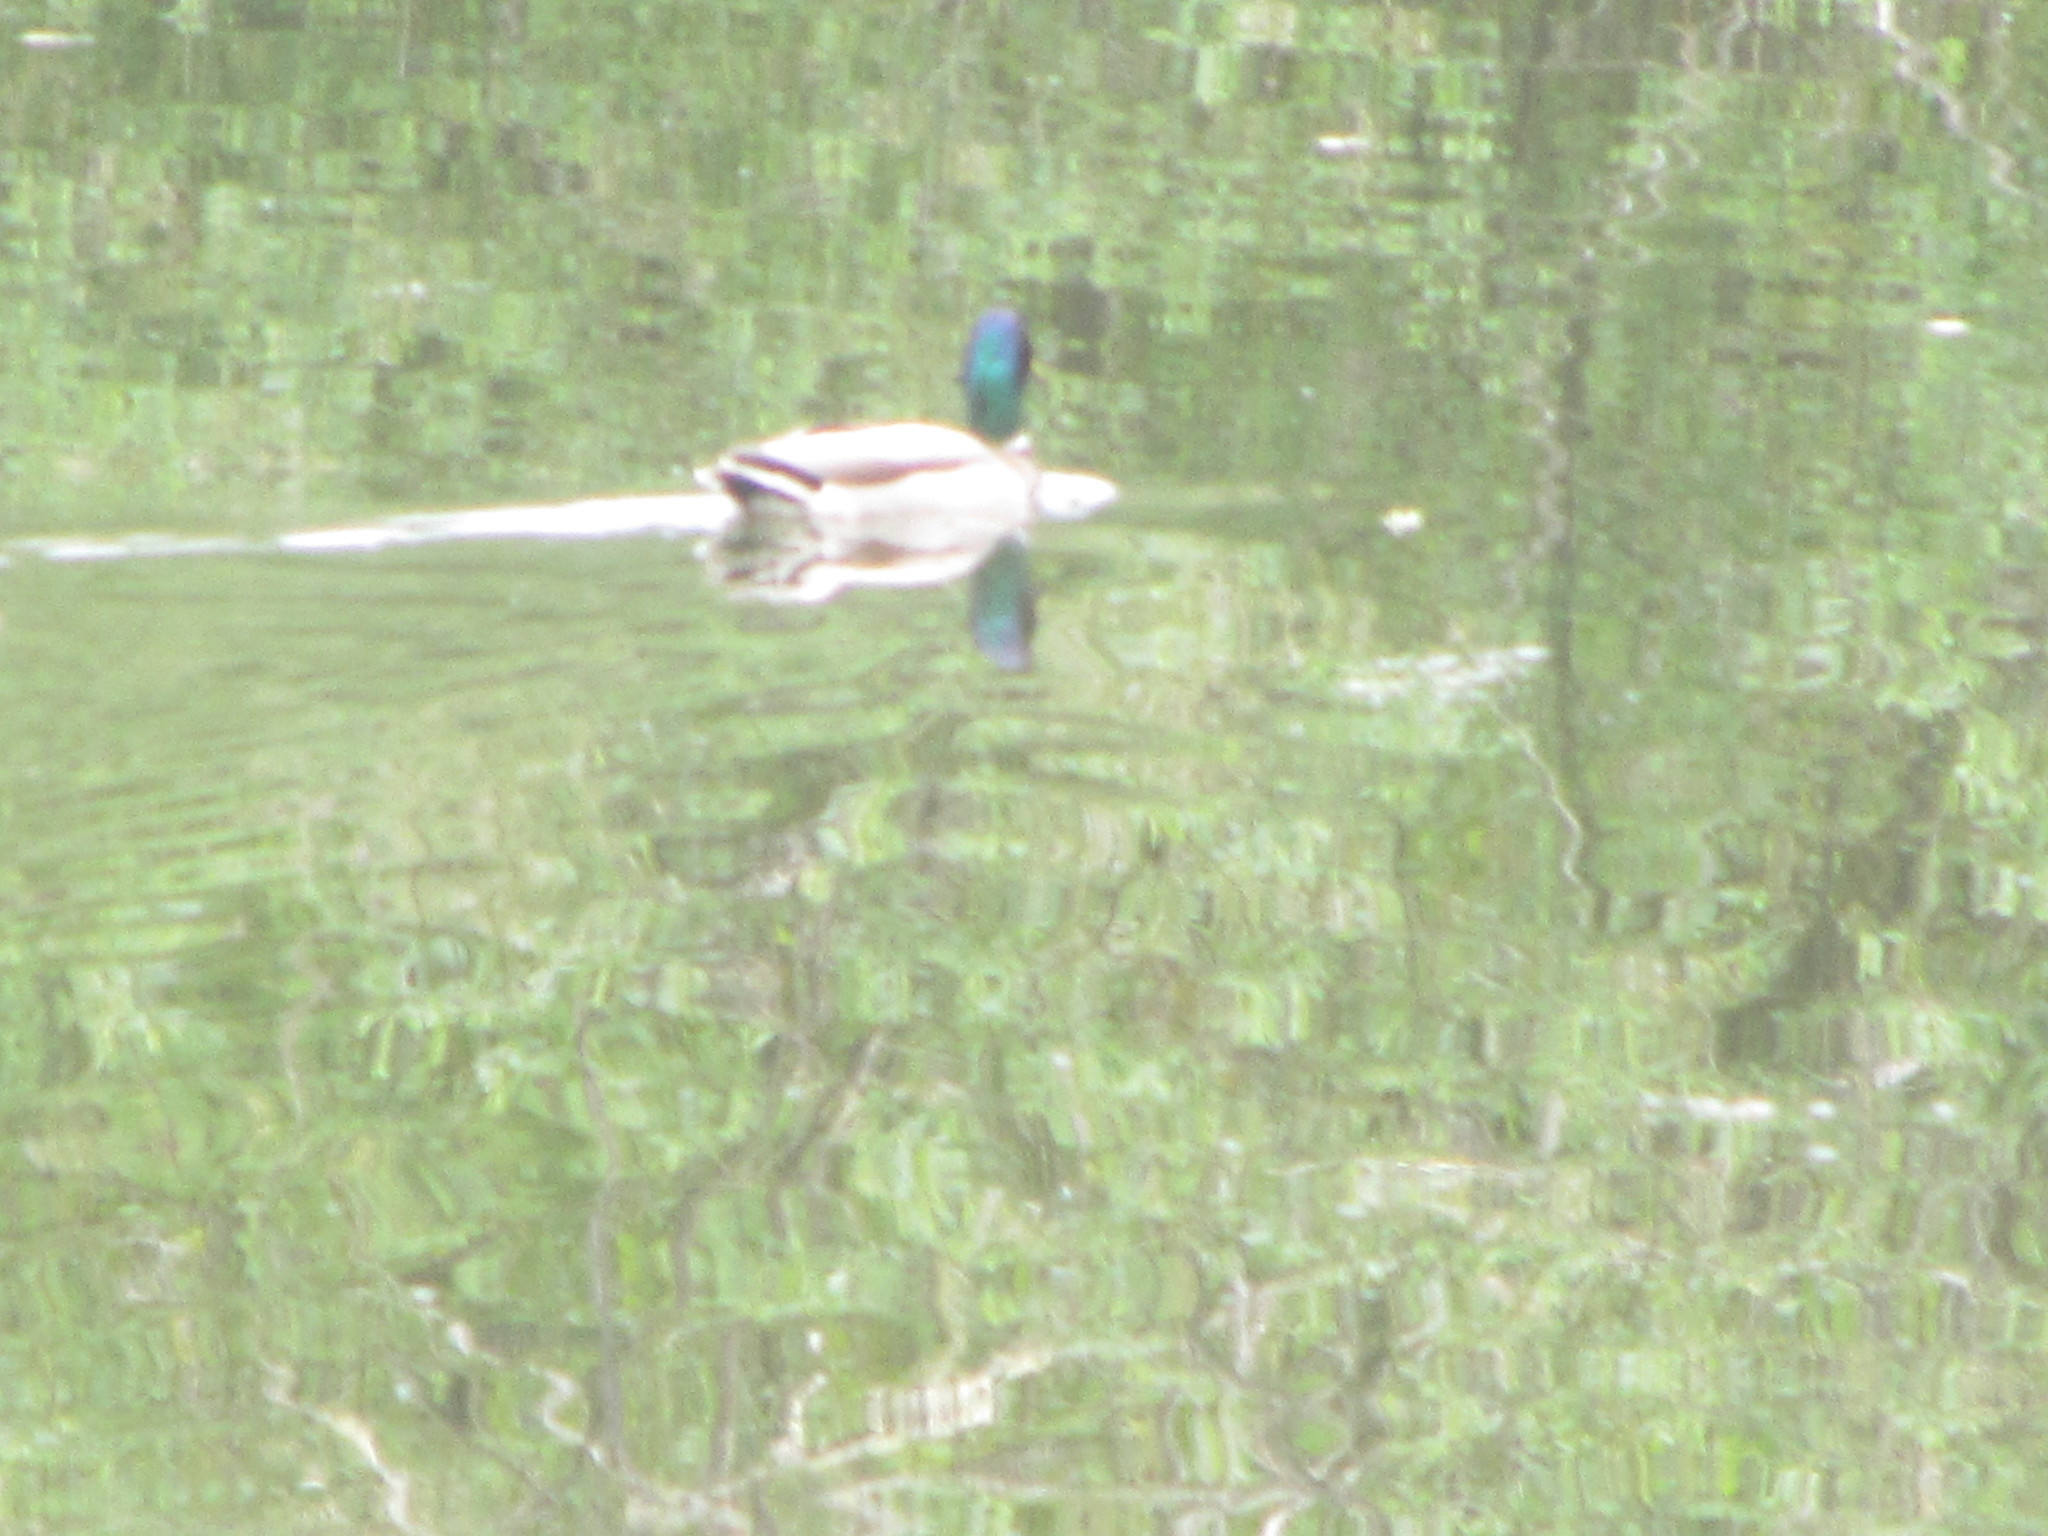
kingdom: Animalia
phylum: Chordata
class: Aves
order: Anseriformes
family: Anatidae
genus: Anas
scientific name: Anas platyrhynchos
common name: Mallard
